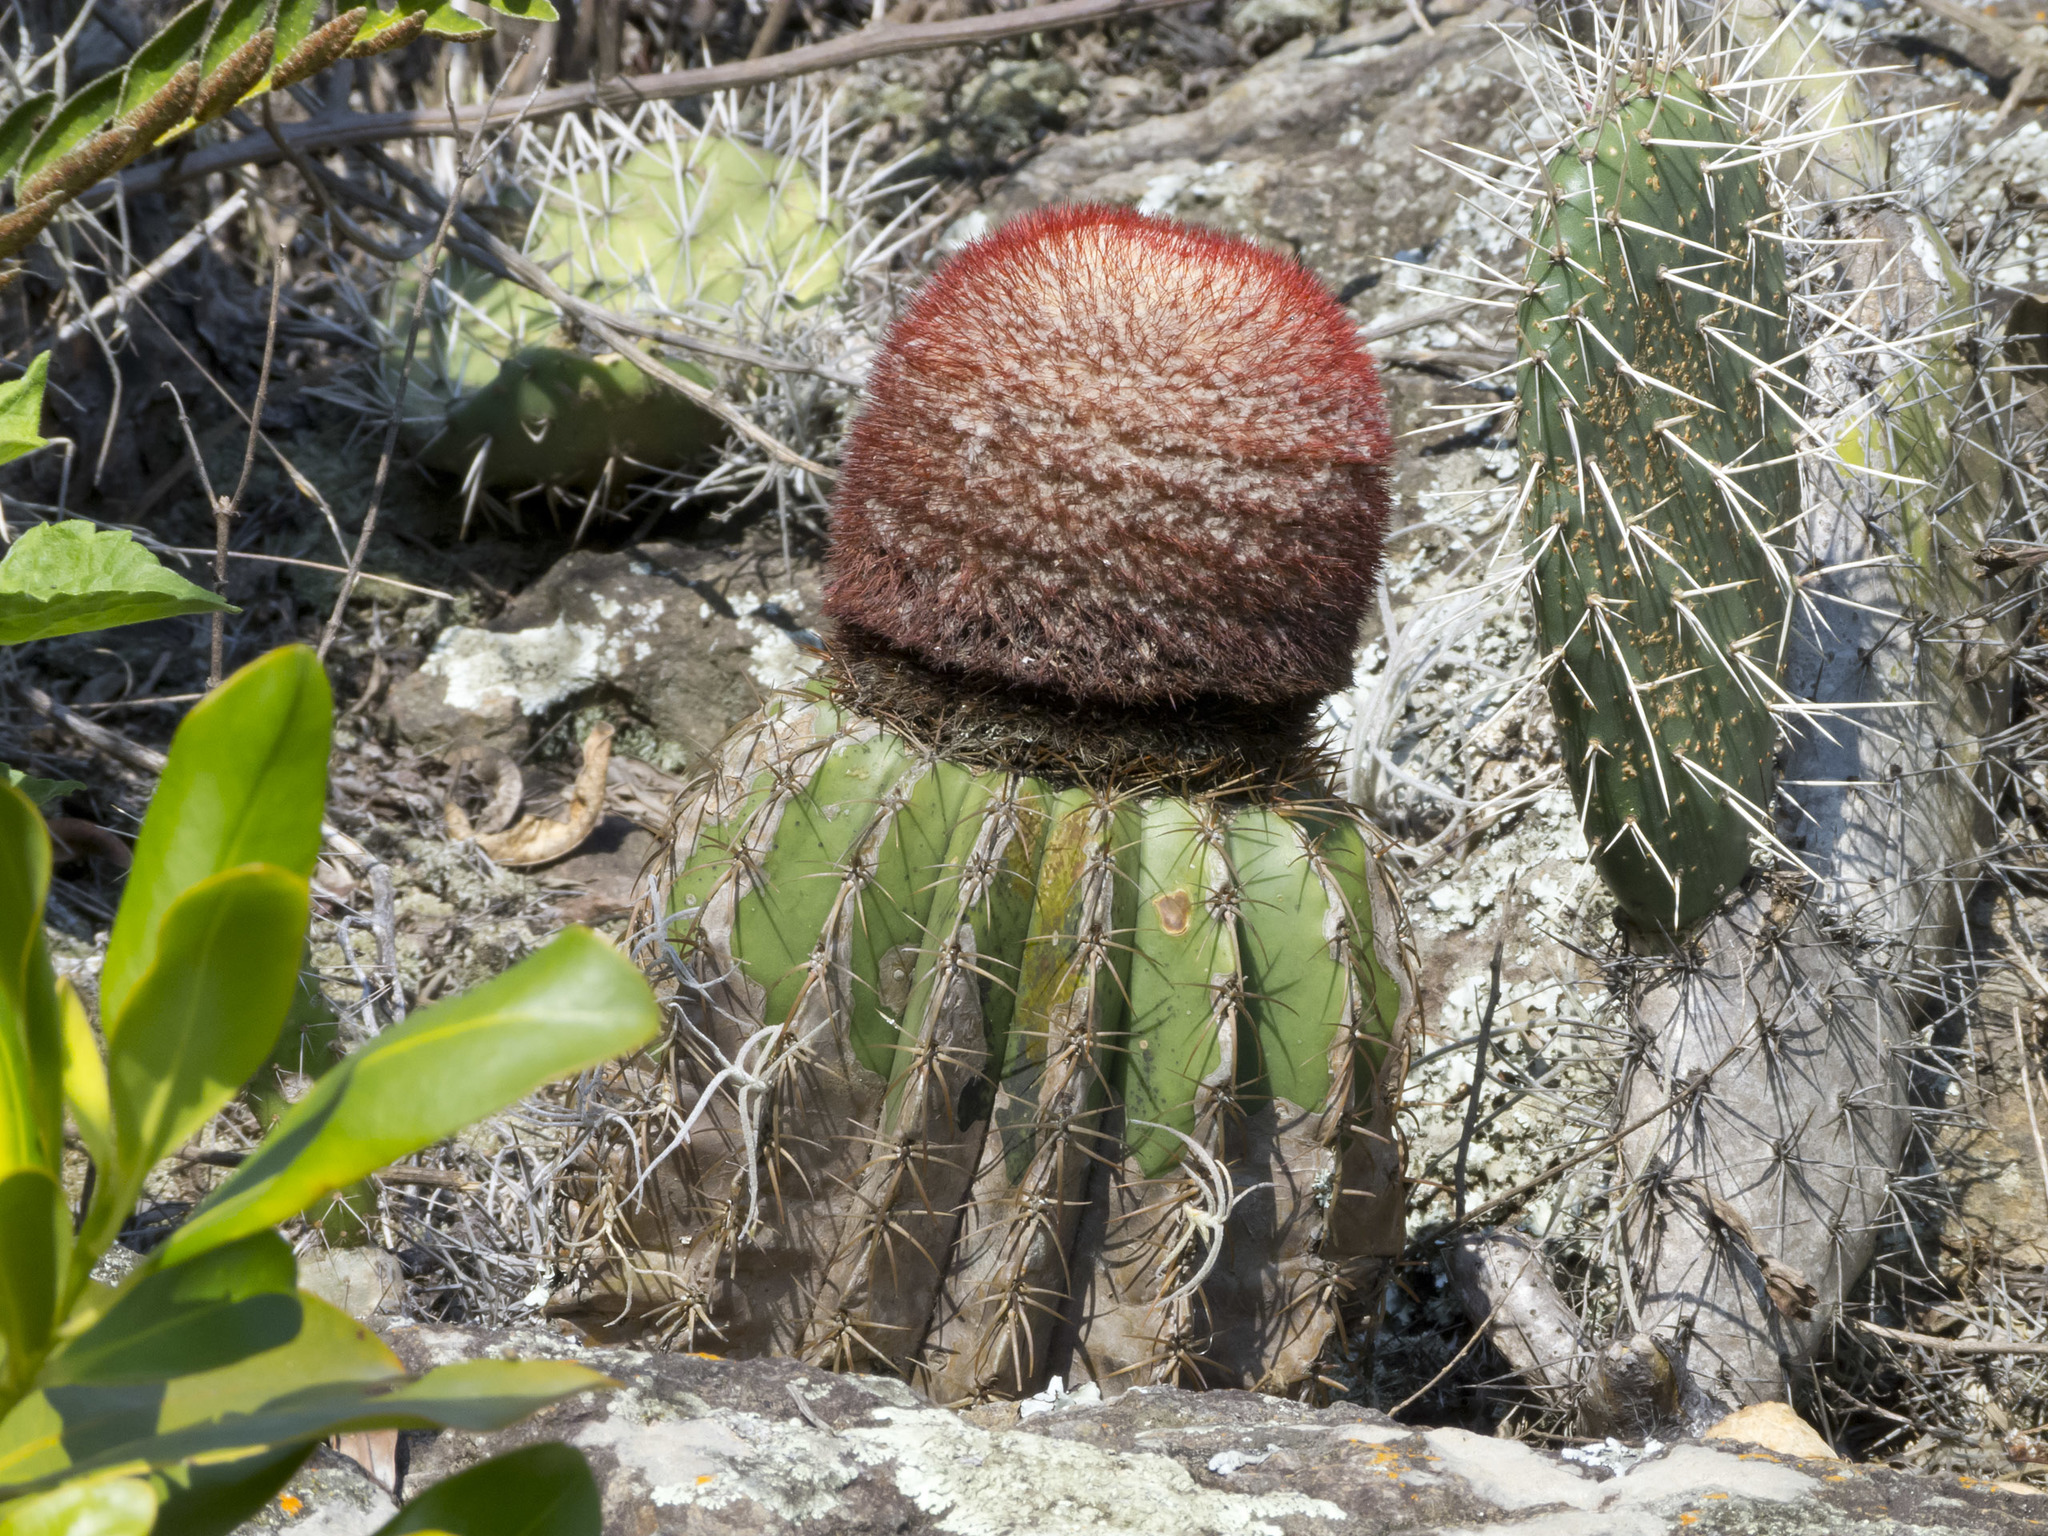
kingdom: Plantae
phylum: Tracheophyta
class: Magnoliopsida
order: Caryophyllales
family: Cactaceae
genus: Melocactus
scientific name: Melocactus andinus
